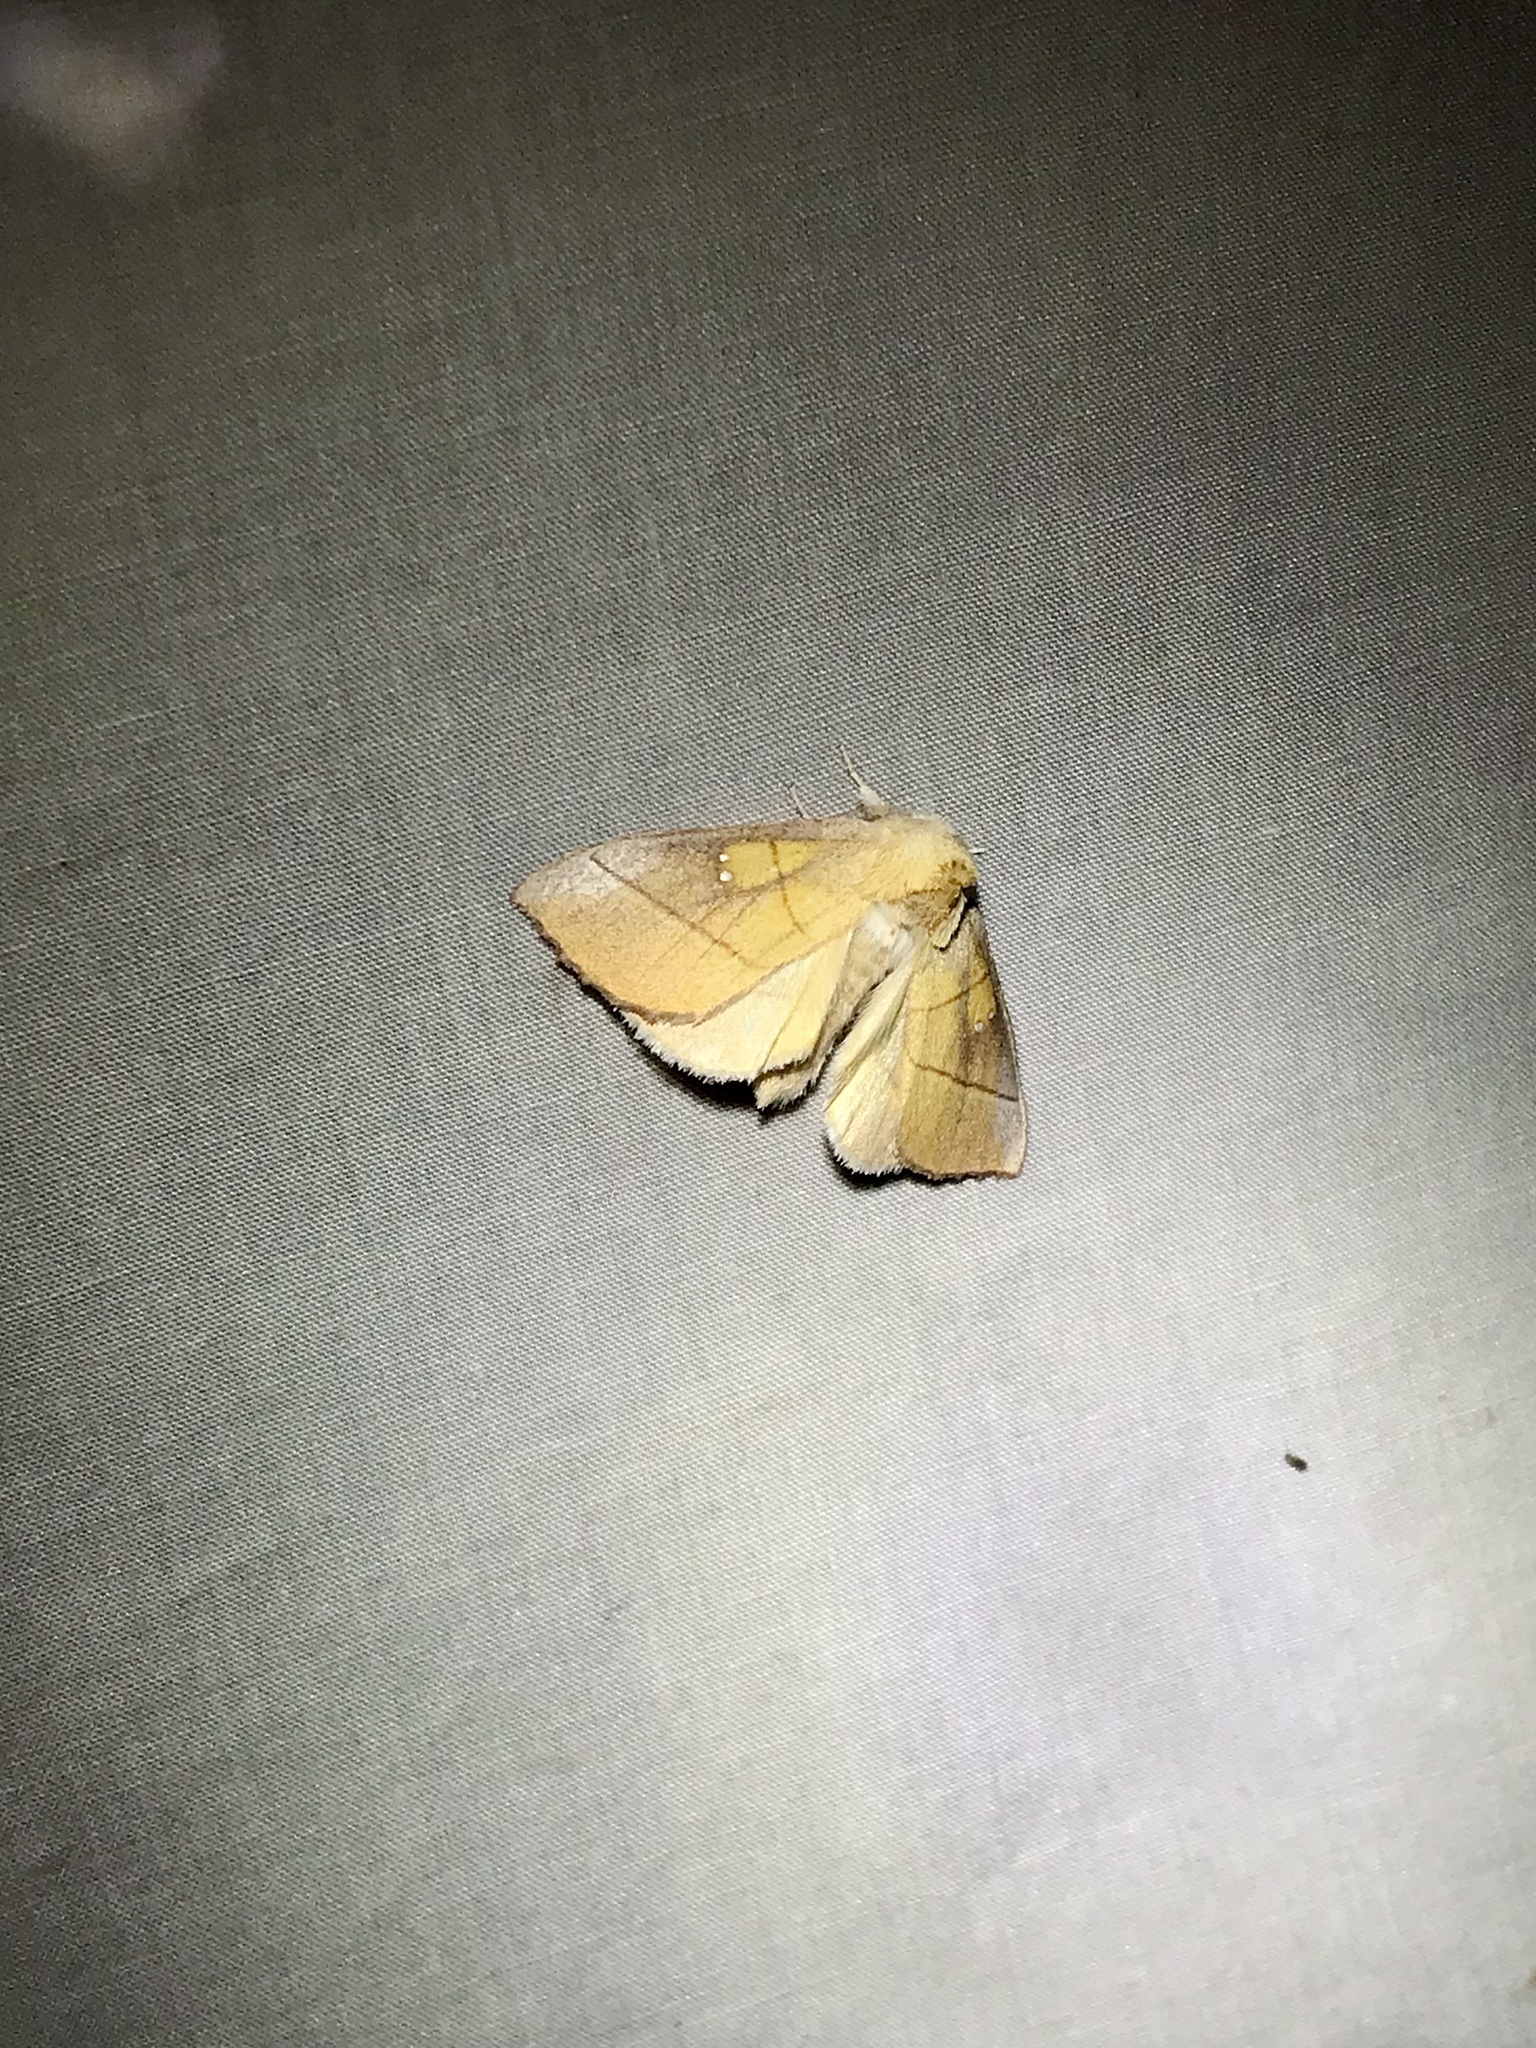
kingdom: Animalia
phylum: Arthropoda
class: Insecta
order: Lepidoptera
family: Notodontidae
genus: Nadata
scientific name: Nadata gibbosa
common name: White-dotted prominent
